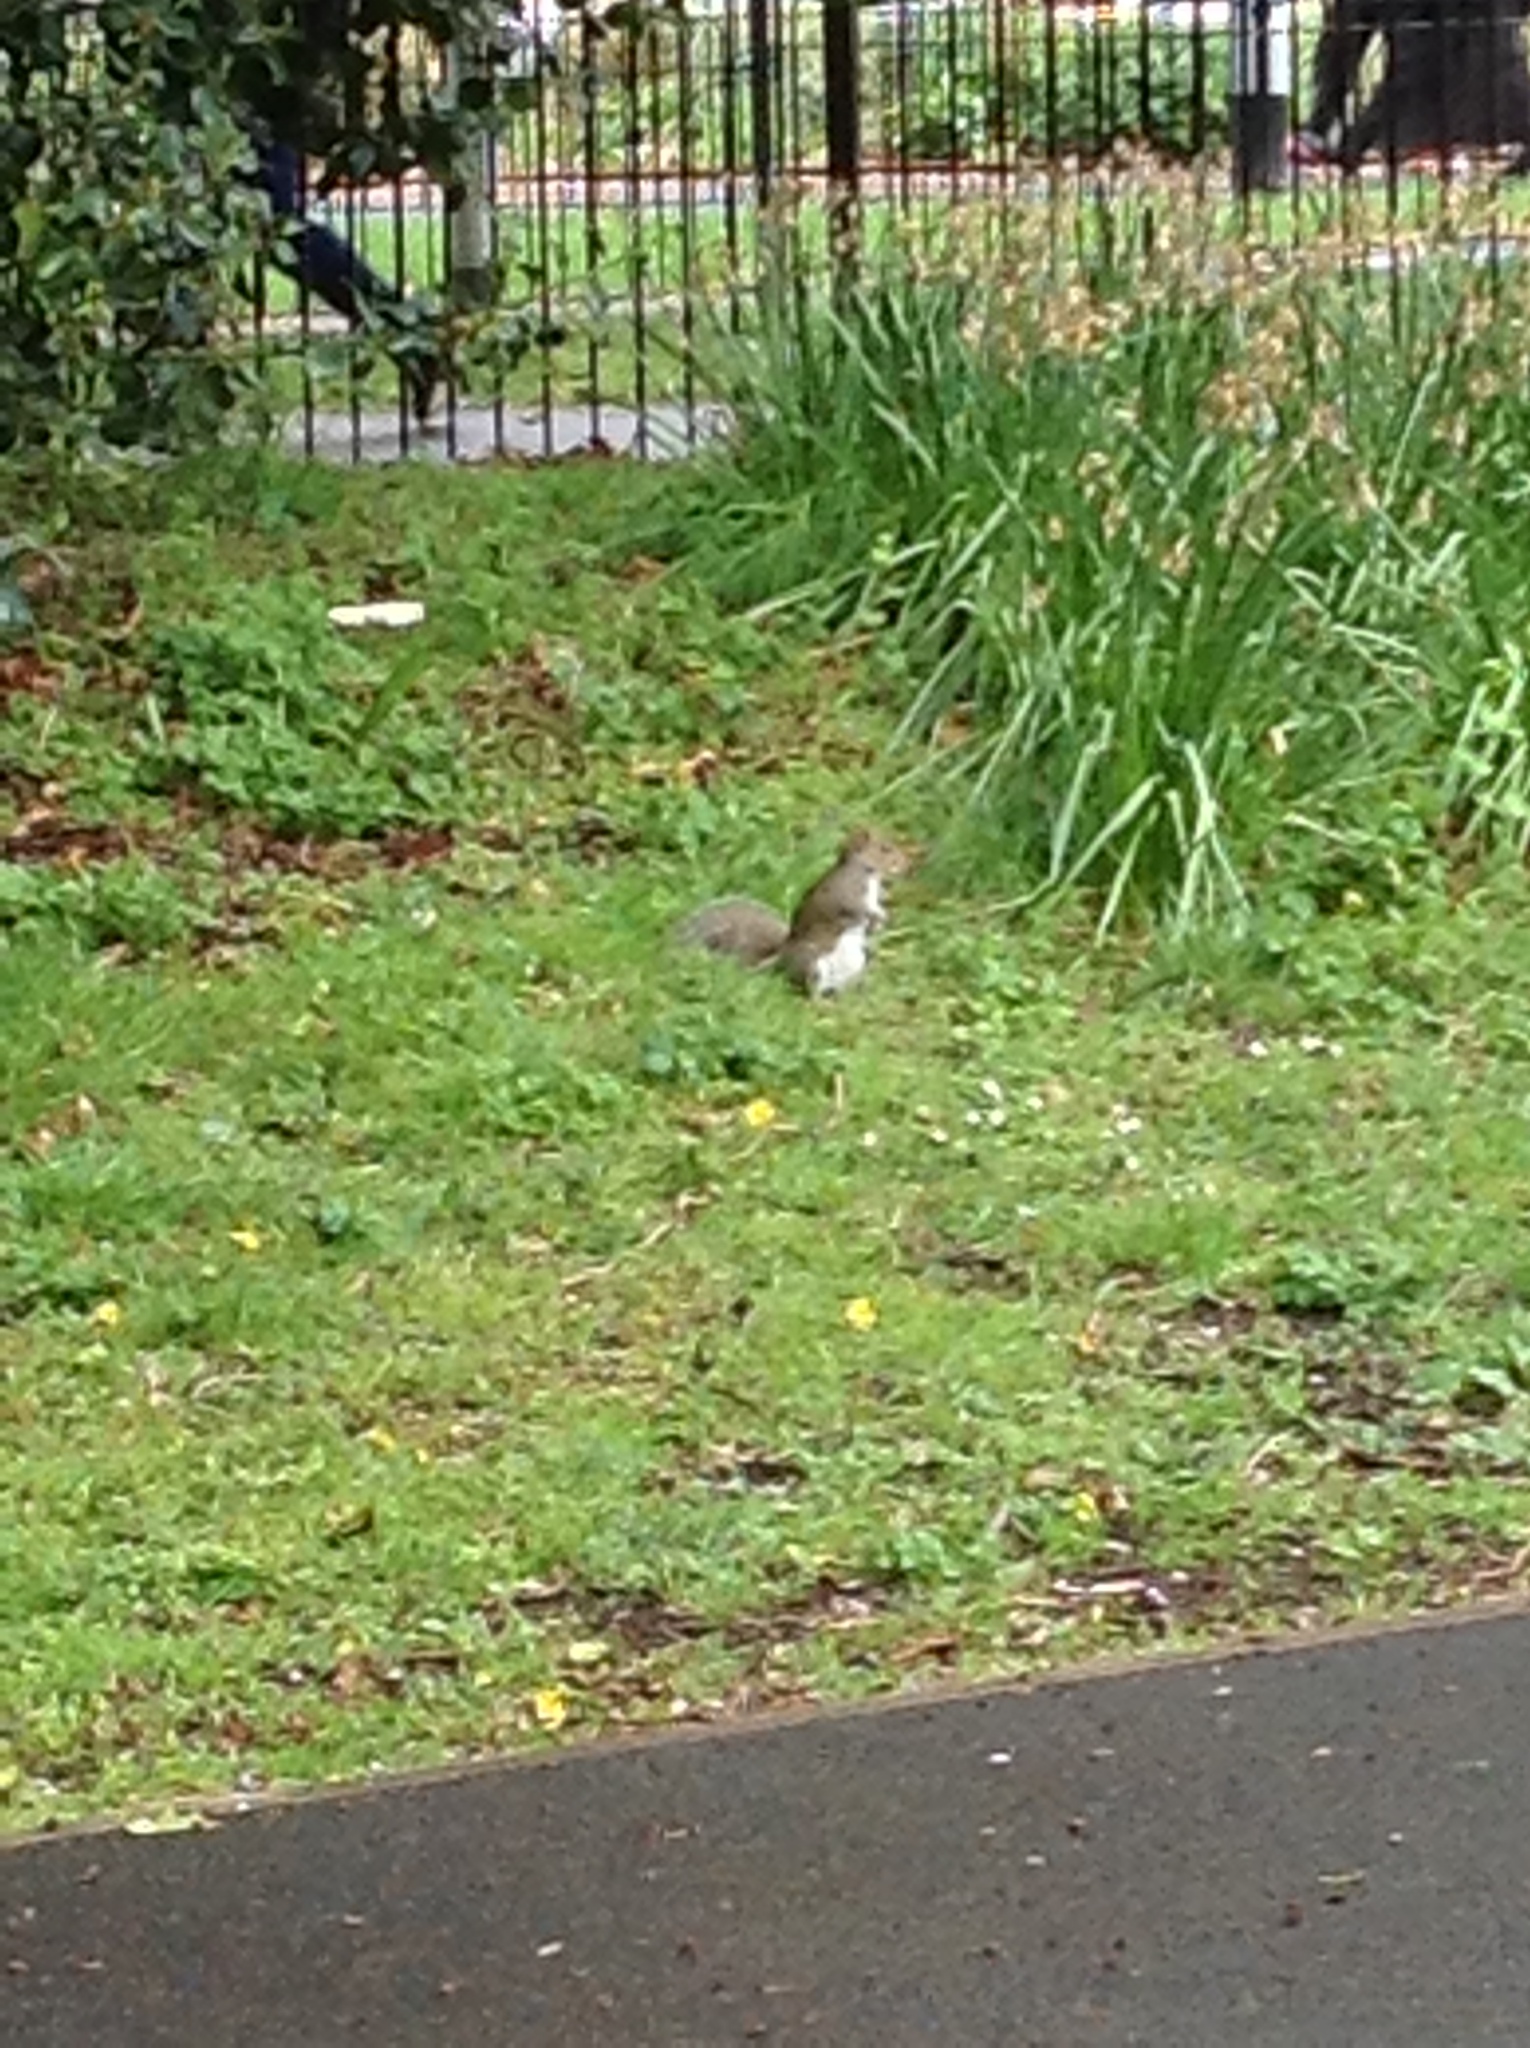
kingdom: Animalia
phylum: Chordata
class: Mammalia
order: Rodentia
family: Sciuridae
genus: Sciurus
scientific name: Sciurus carolinensis
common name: Eastern gray squirrel
